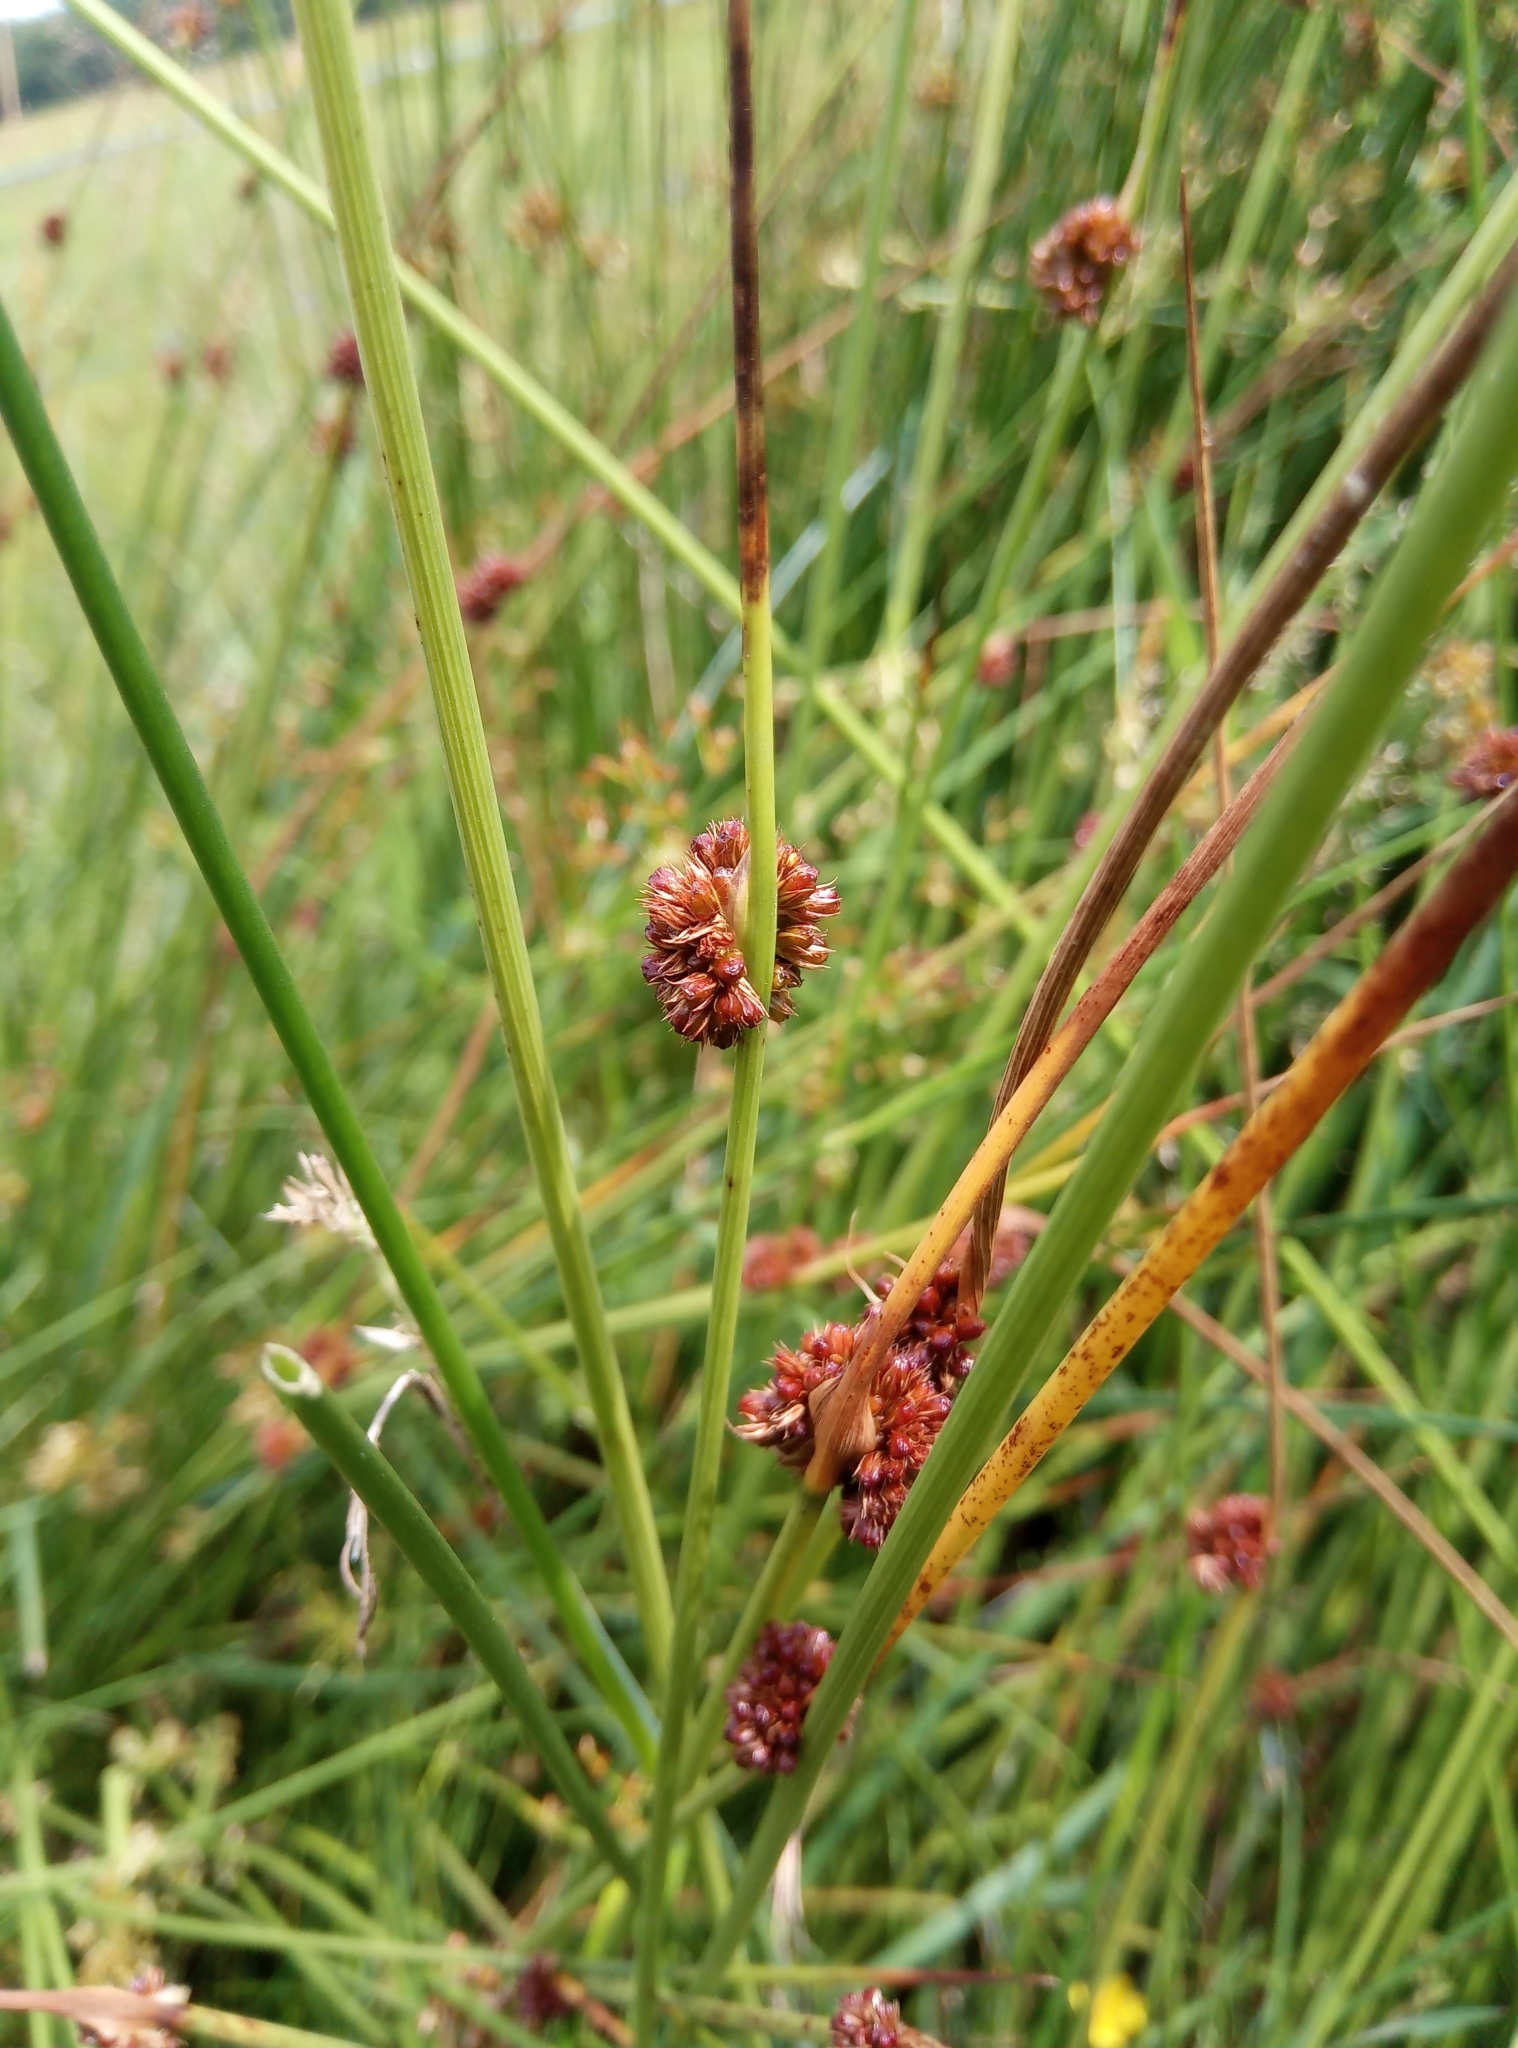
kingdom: Plantae
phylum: Tracheophyta
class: Liliopsida
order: Poales
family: Juncaceae
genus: Juncus
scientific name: Juncus conglomeratus
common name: Compact rush
